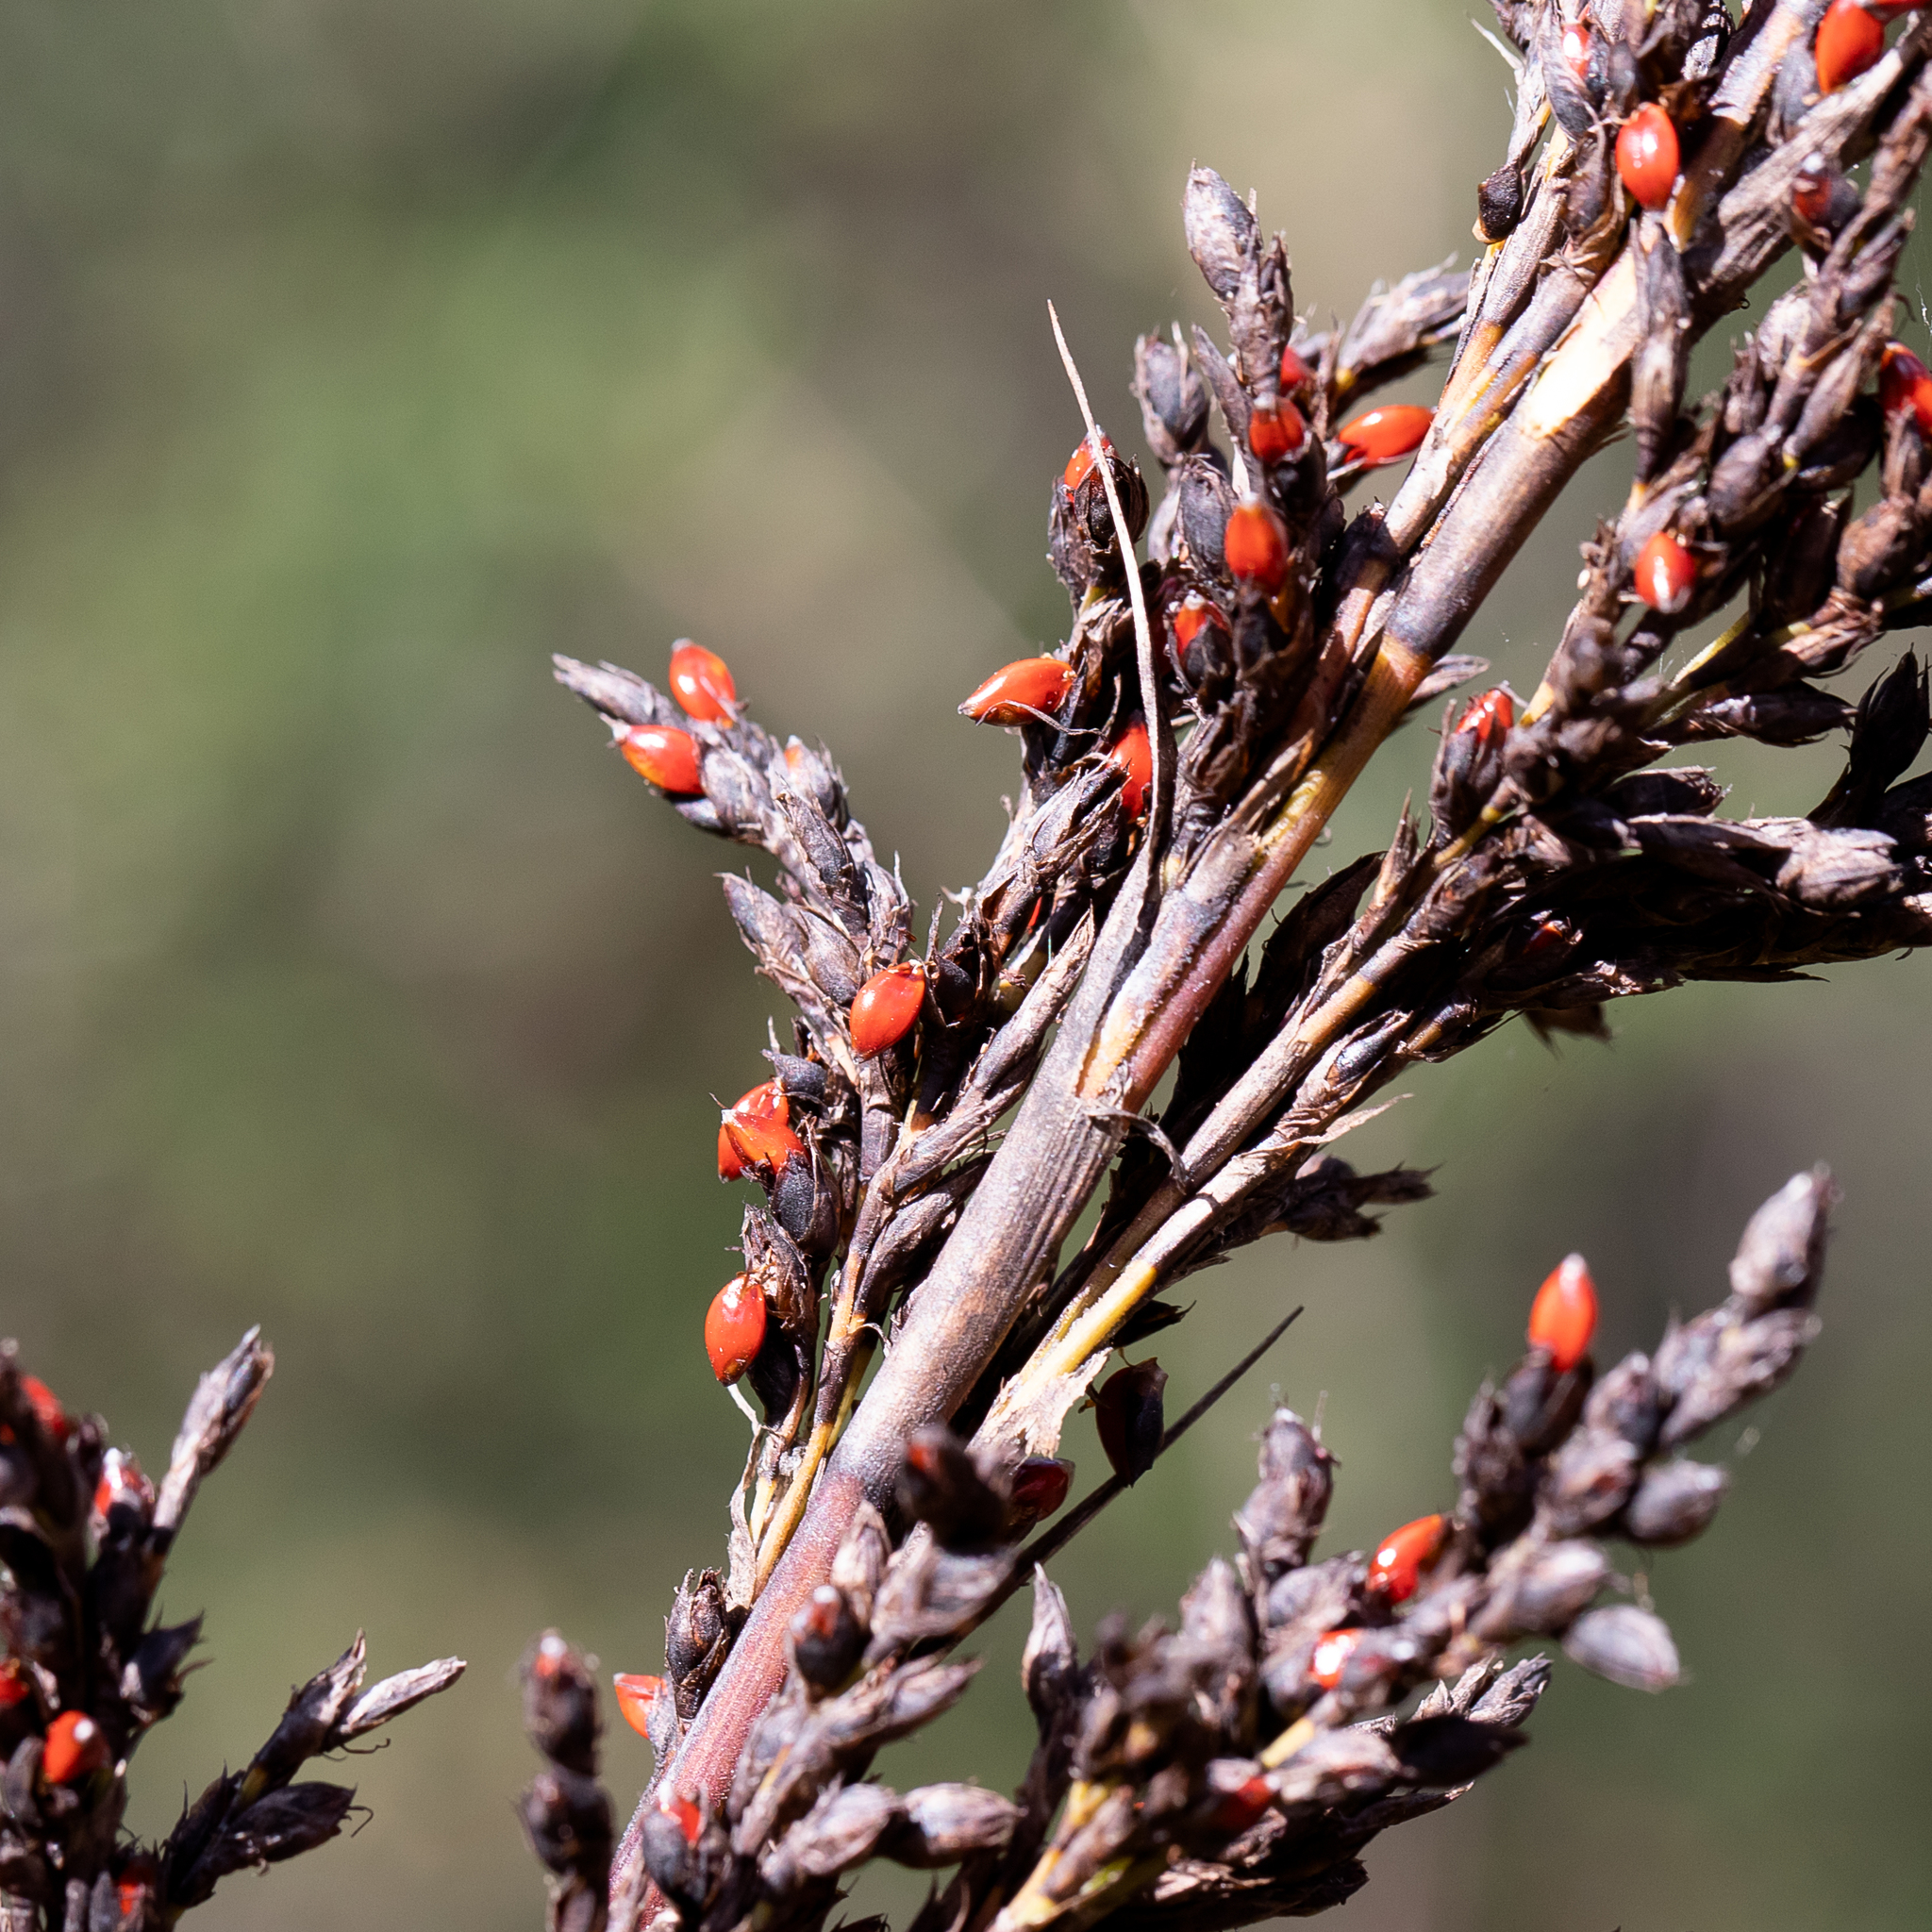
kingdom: Plantae
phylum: Tracheophyta
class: Liliopsida
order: Poales
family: Cyperaceae
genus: Gahnia
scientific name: Gahnia sieberiana
